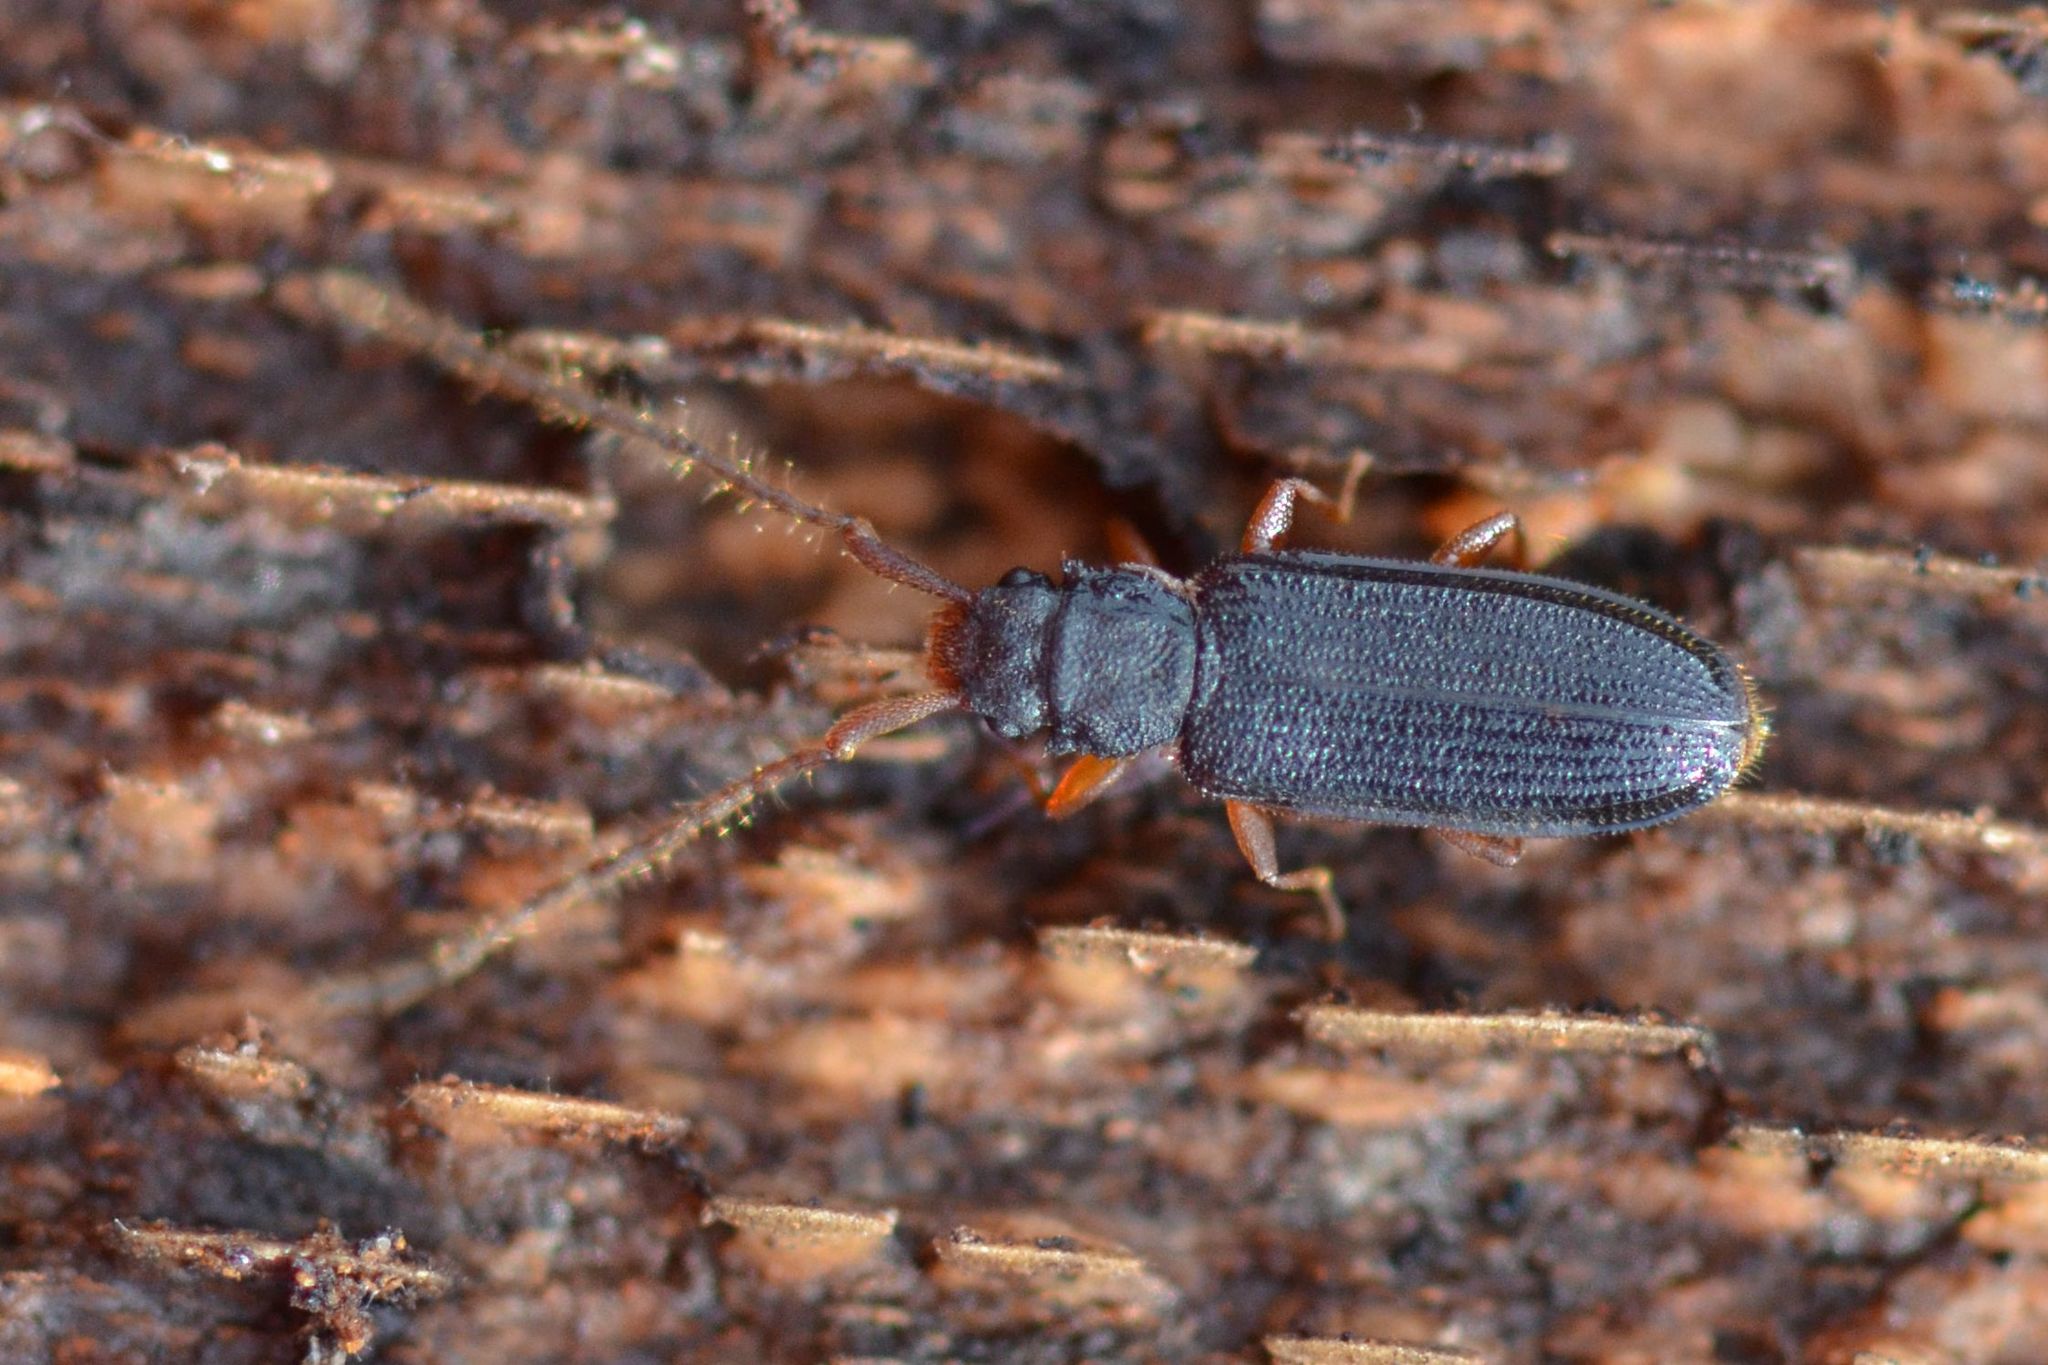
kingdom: Animalia
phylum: Arthropoda
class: Insecta
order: Coleoptera
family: Silvanidae
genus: Uleiota
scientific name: Uleiota planatus
